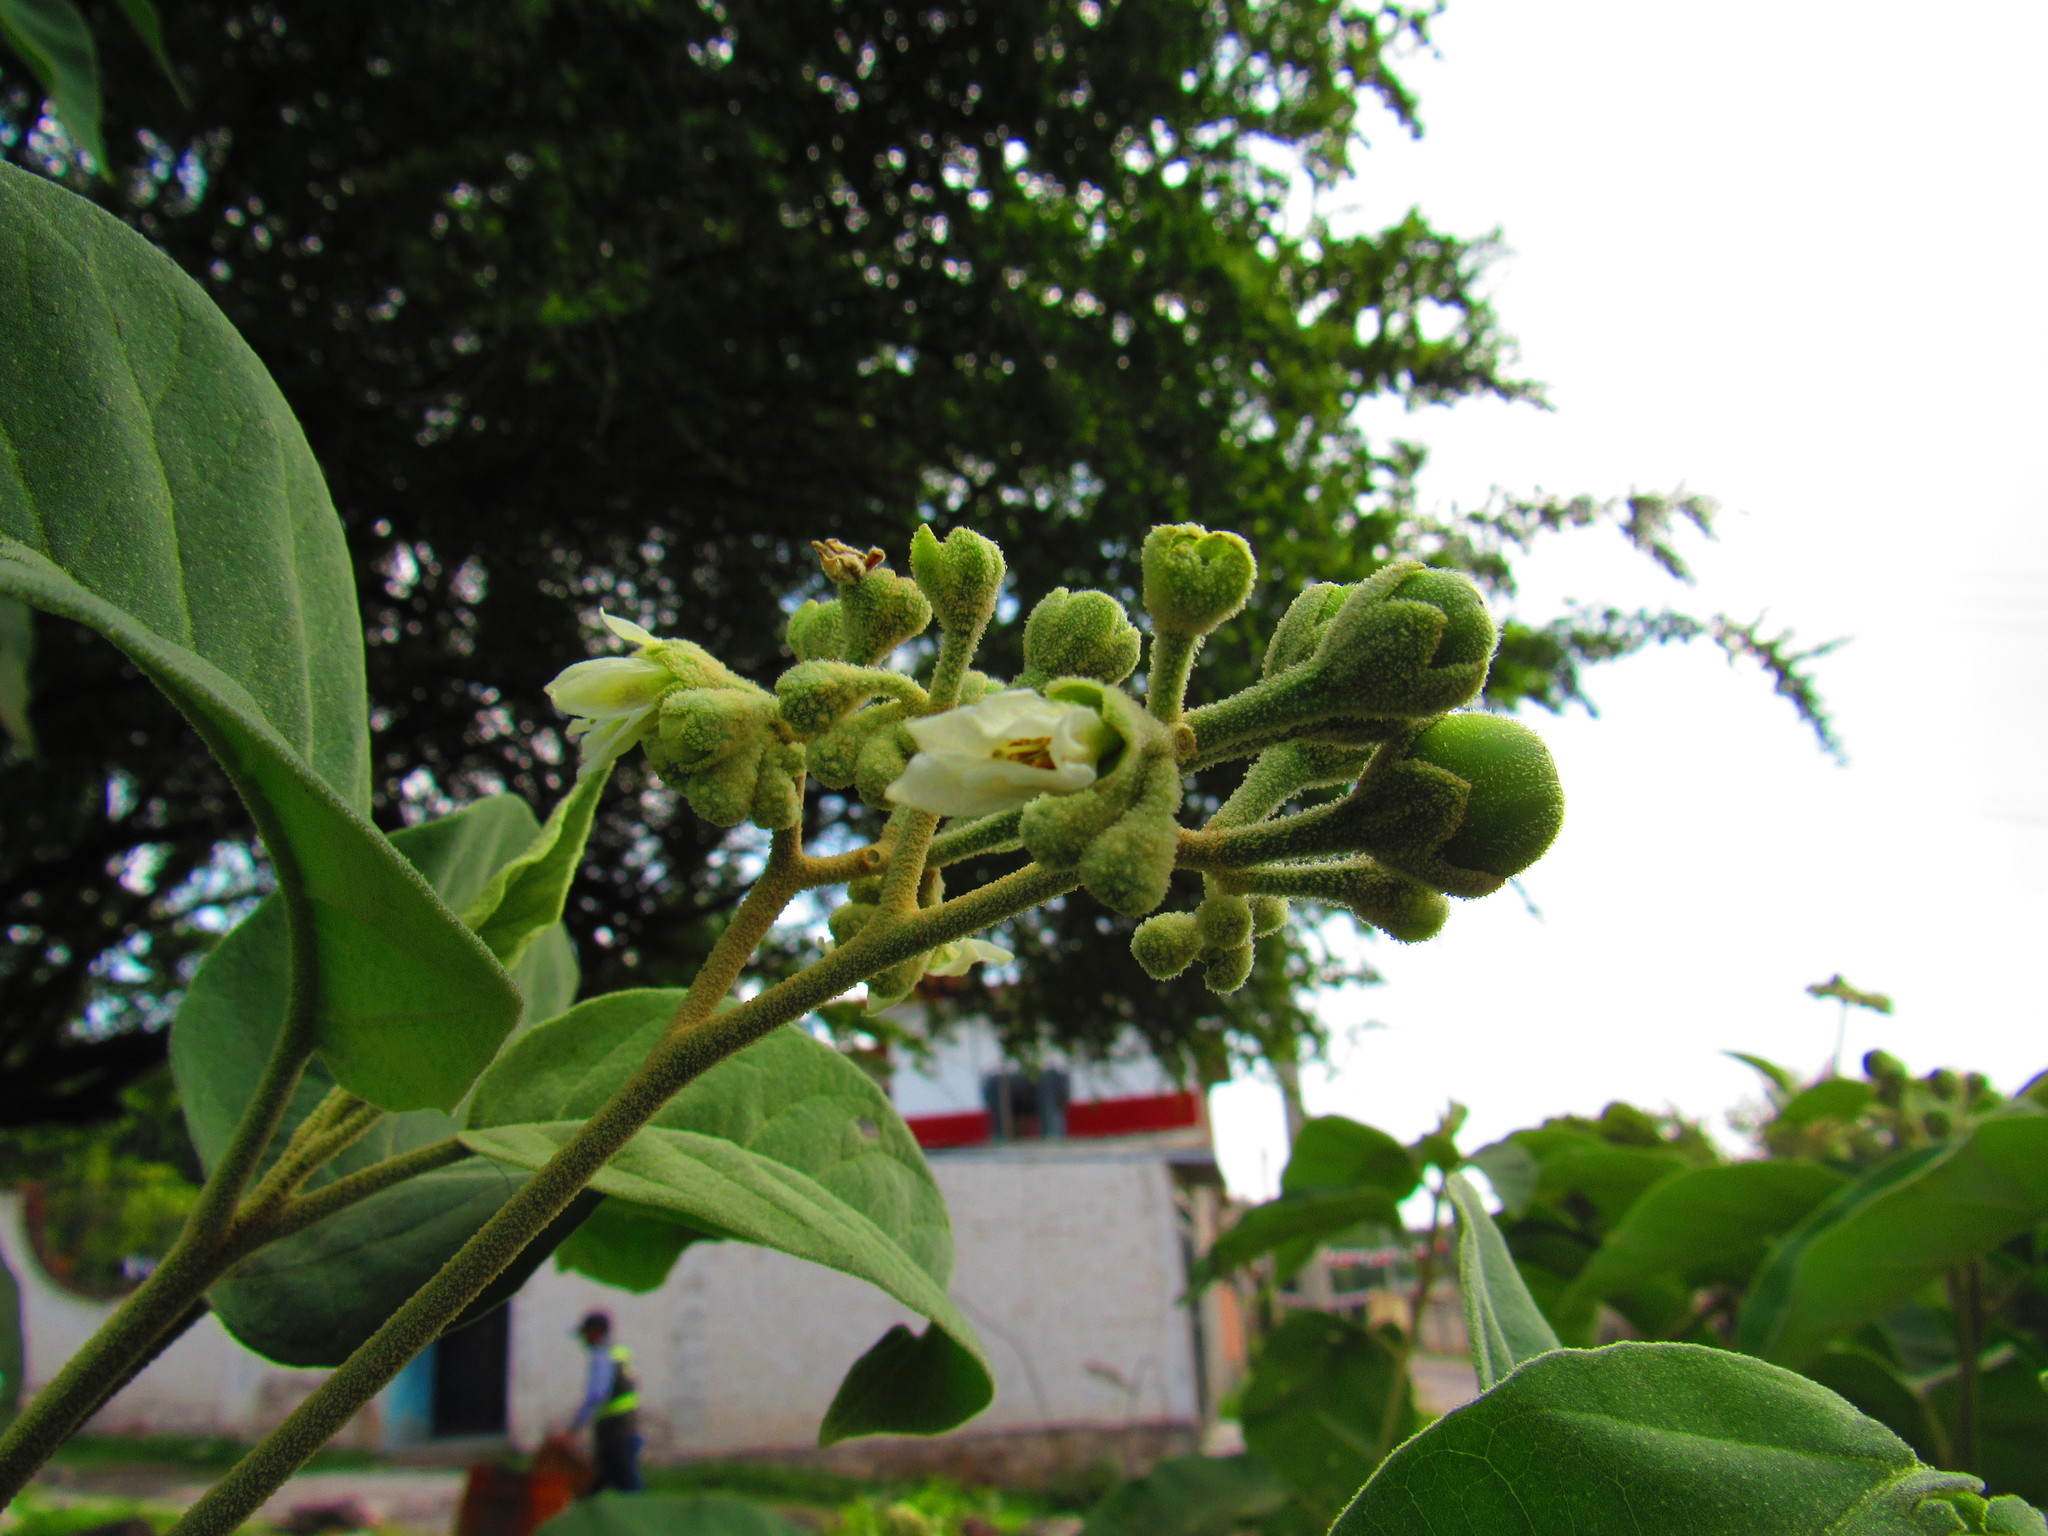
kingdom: Plantae
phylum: Tracheophyta
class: Magnoliopsida
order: Solanales
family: Solanaceae
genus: Solanum
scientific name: Solanum erianthum
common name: Tobacco-tree
